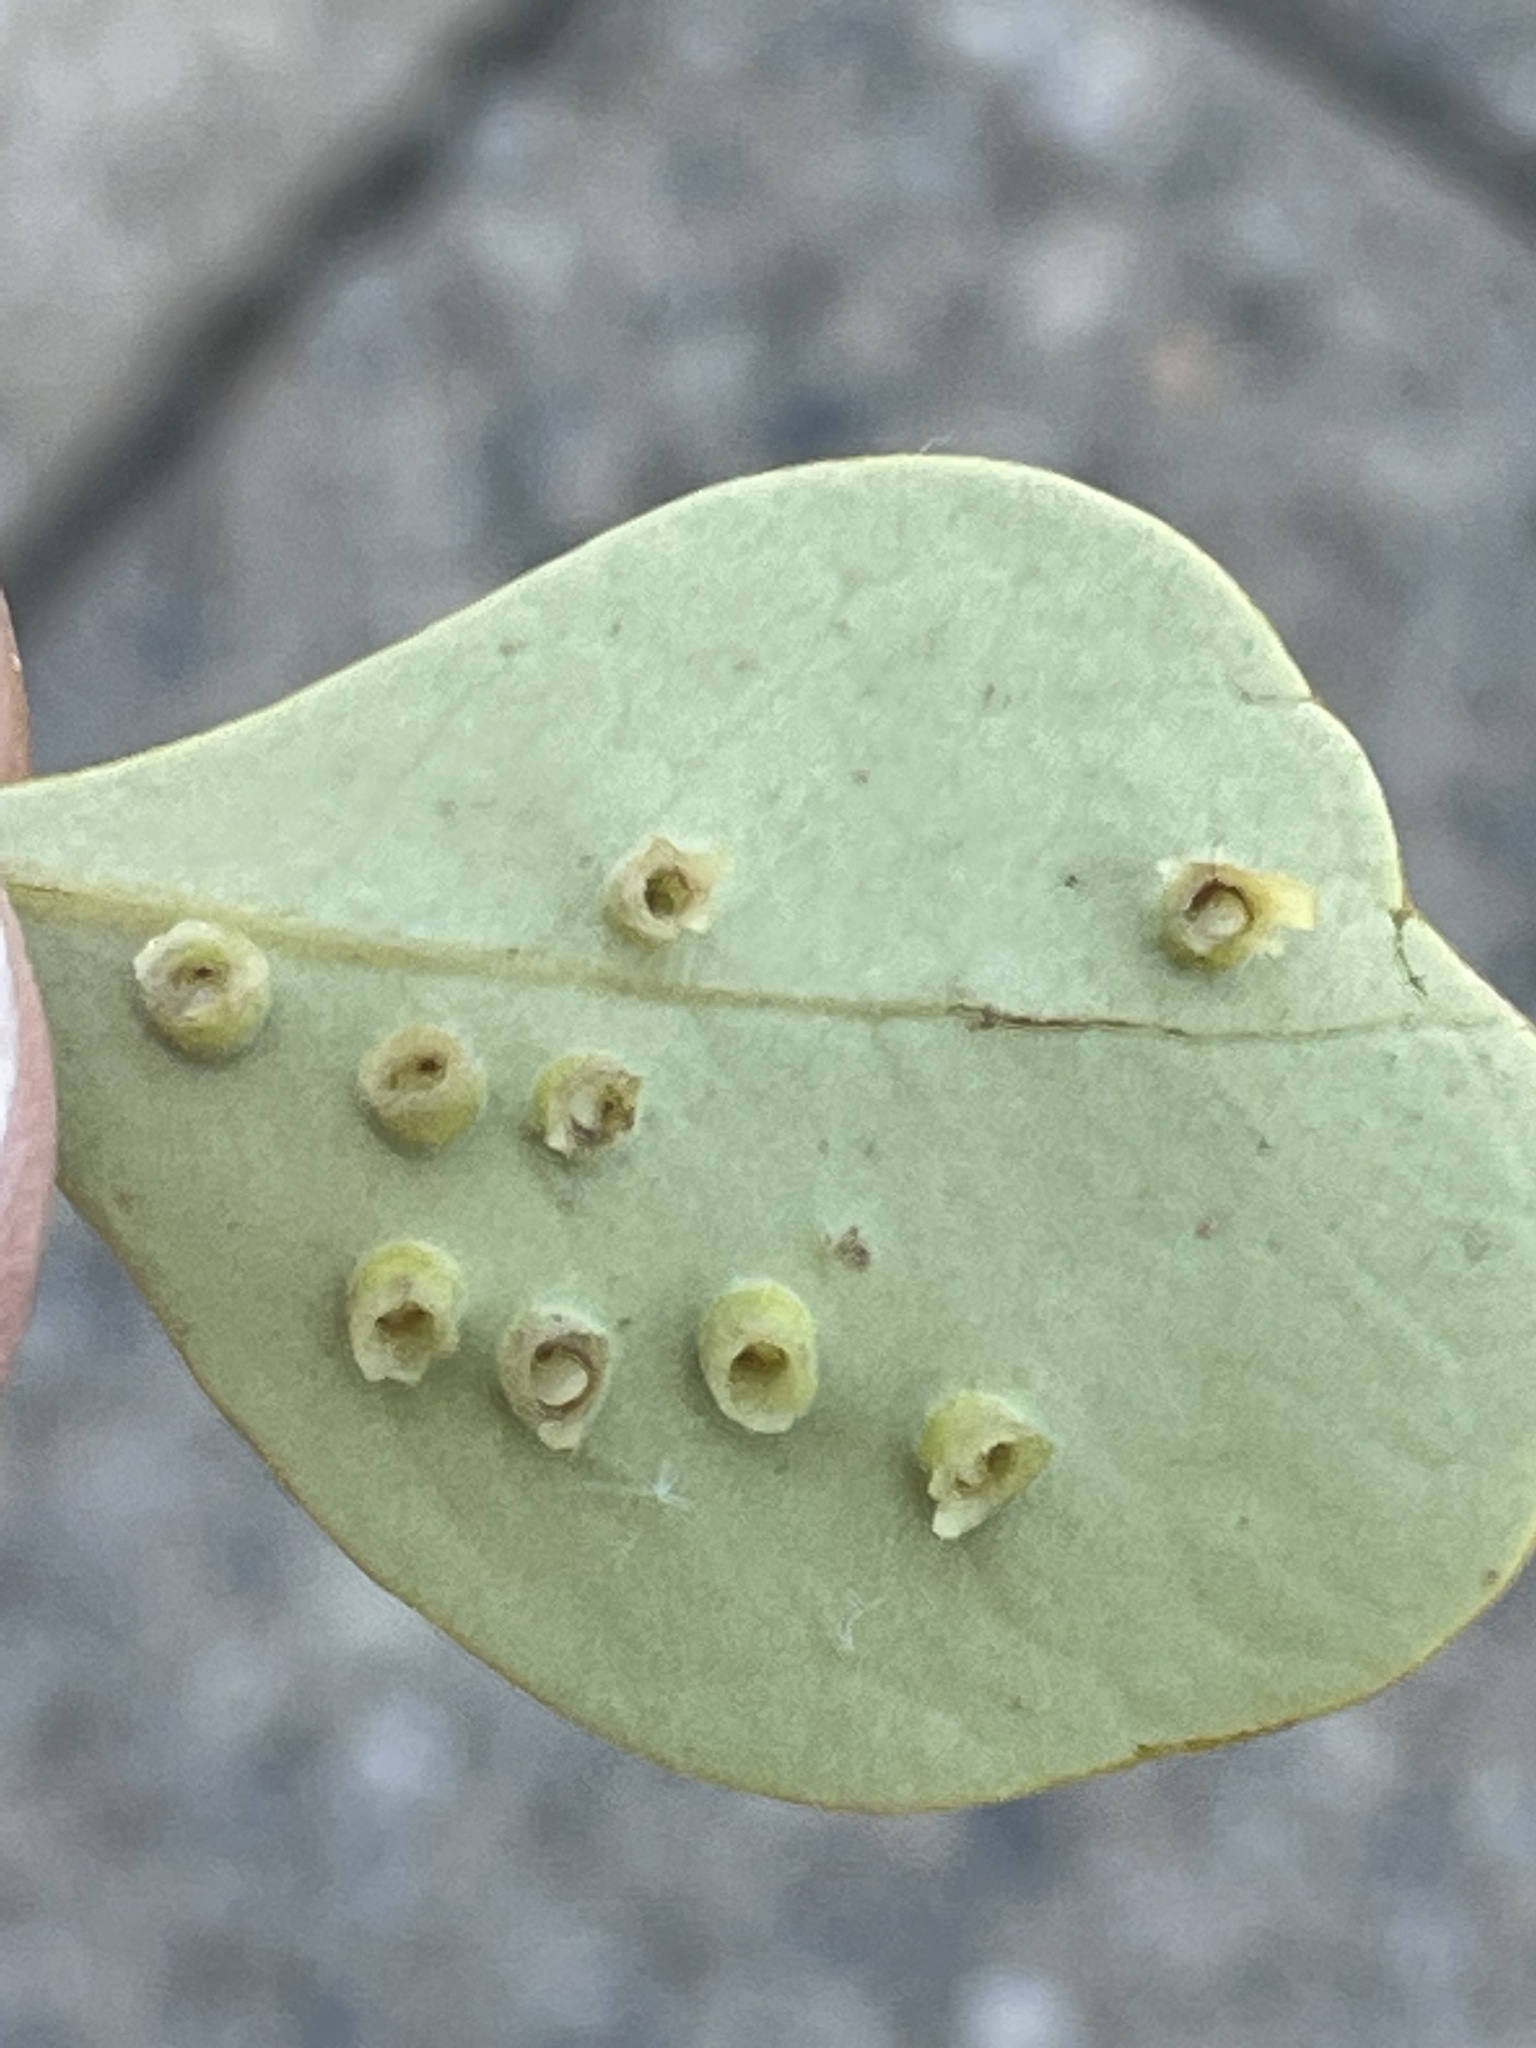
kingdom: Animalia
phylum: Arthropoda
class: Insecta
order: Diptera
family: Cecidomyiidae
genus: Actilasioptera
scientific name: Actilasioptera coronata
